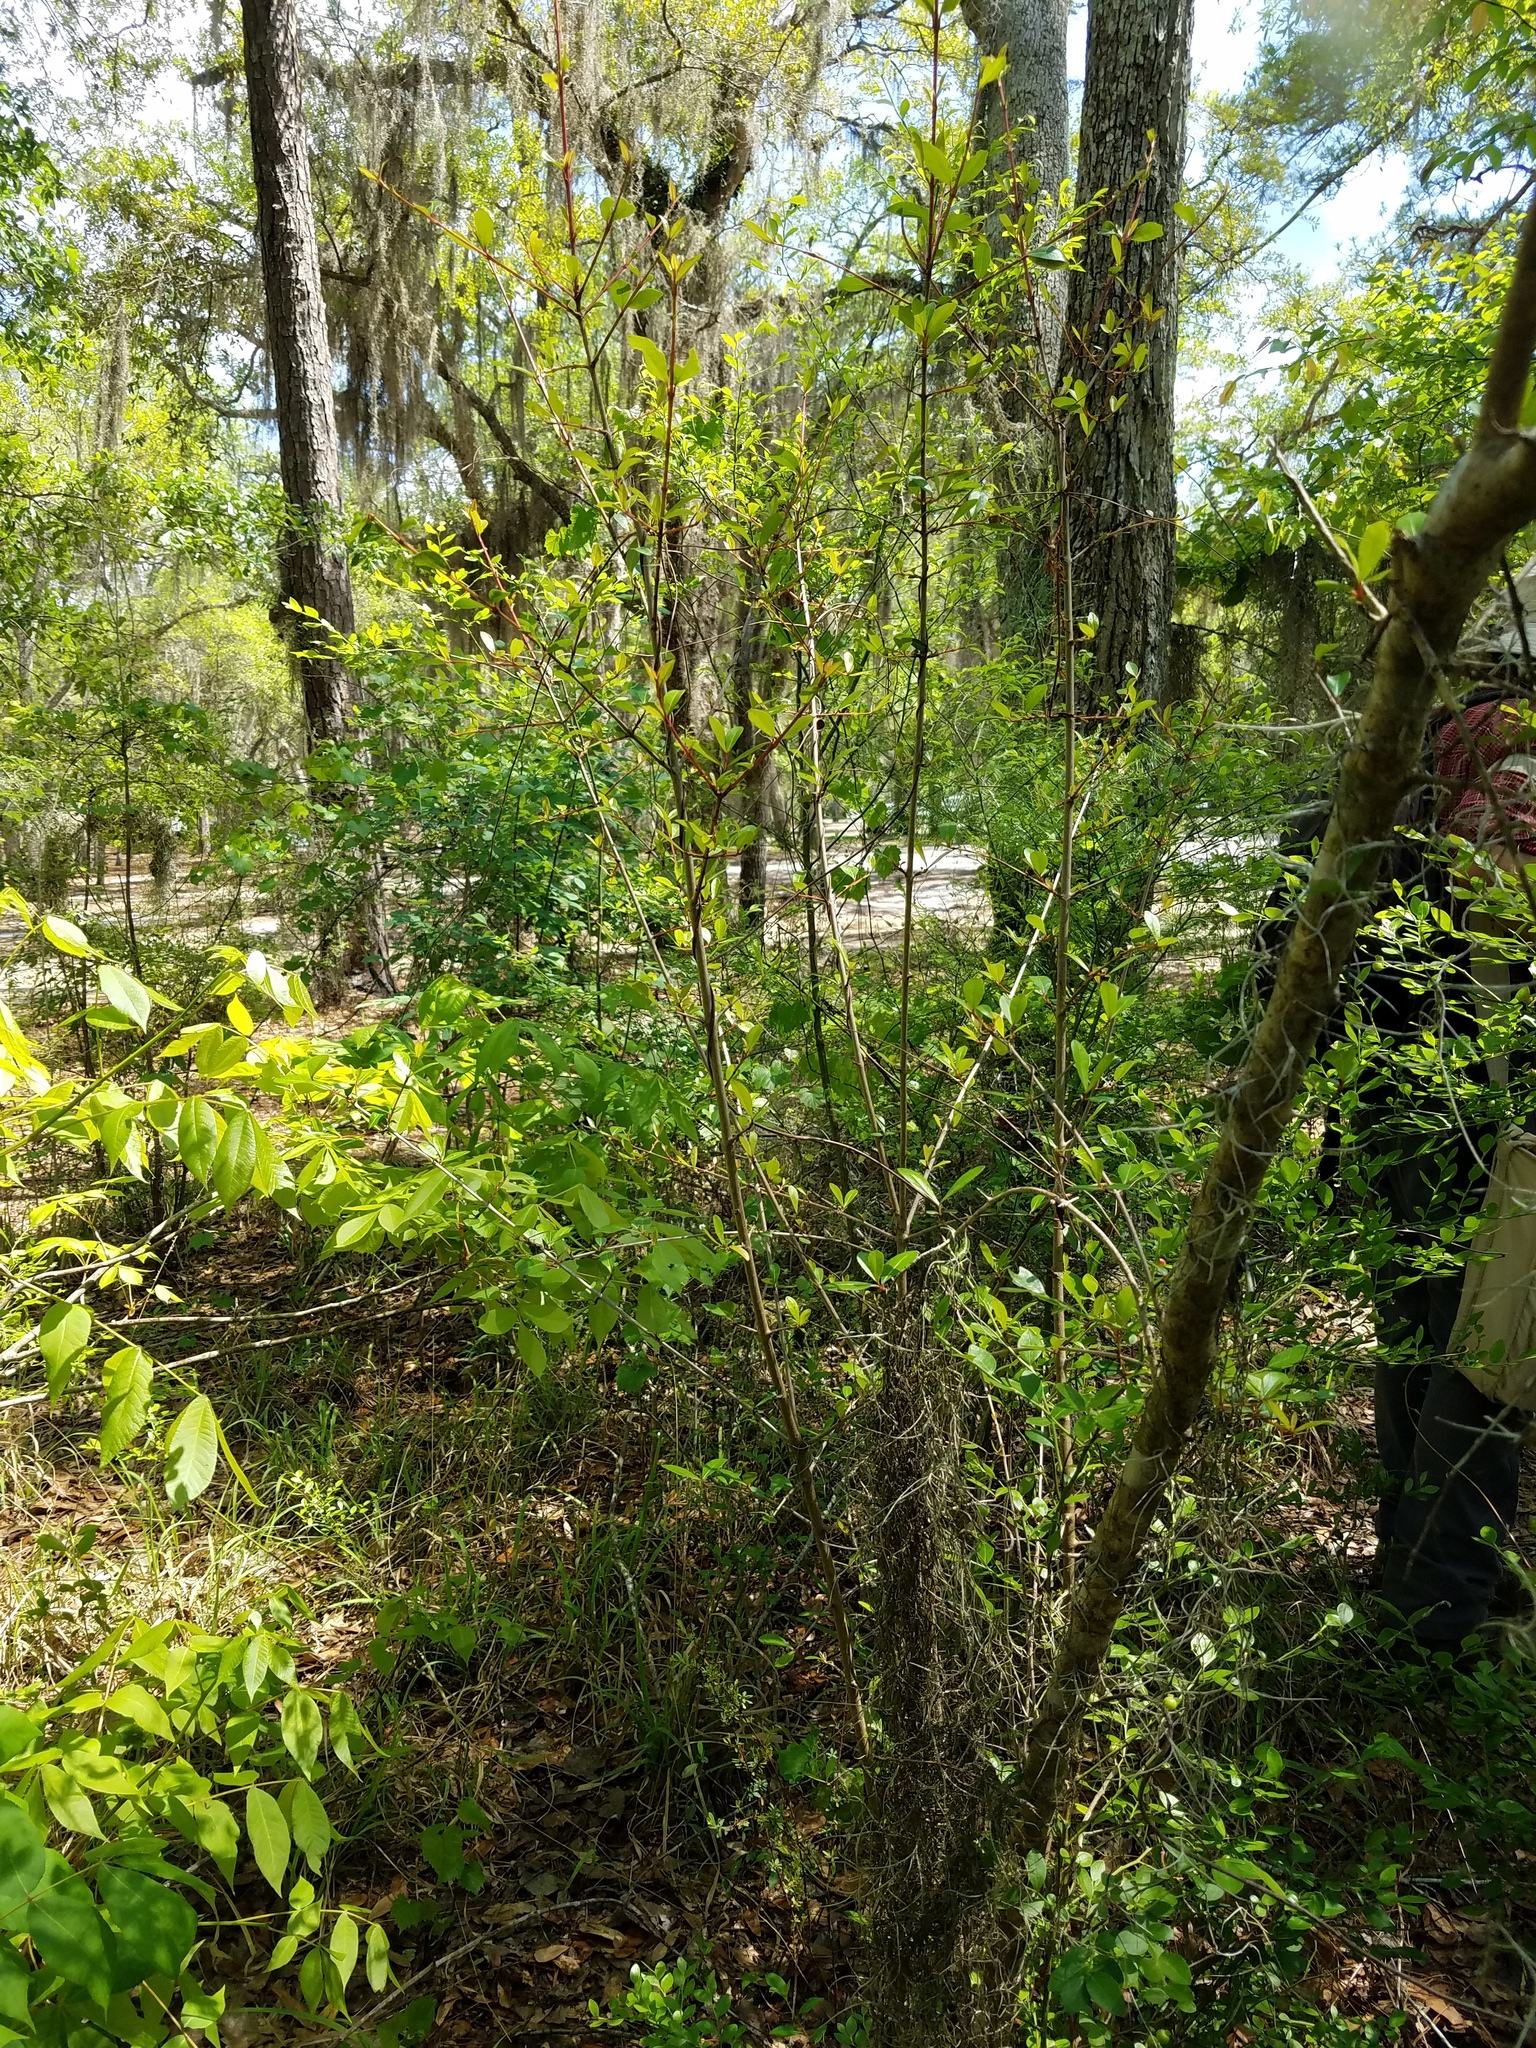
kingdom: Plantae
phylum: Tracheophyta
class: Magnoliopsida
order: Dipsacales
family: Viburnaceae
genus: Viburnum
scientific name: Viburnum obovatum
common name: Walter's viburnum
